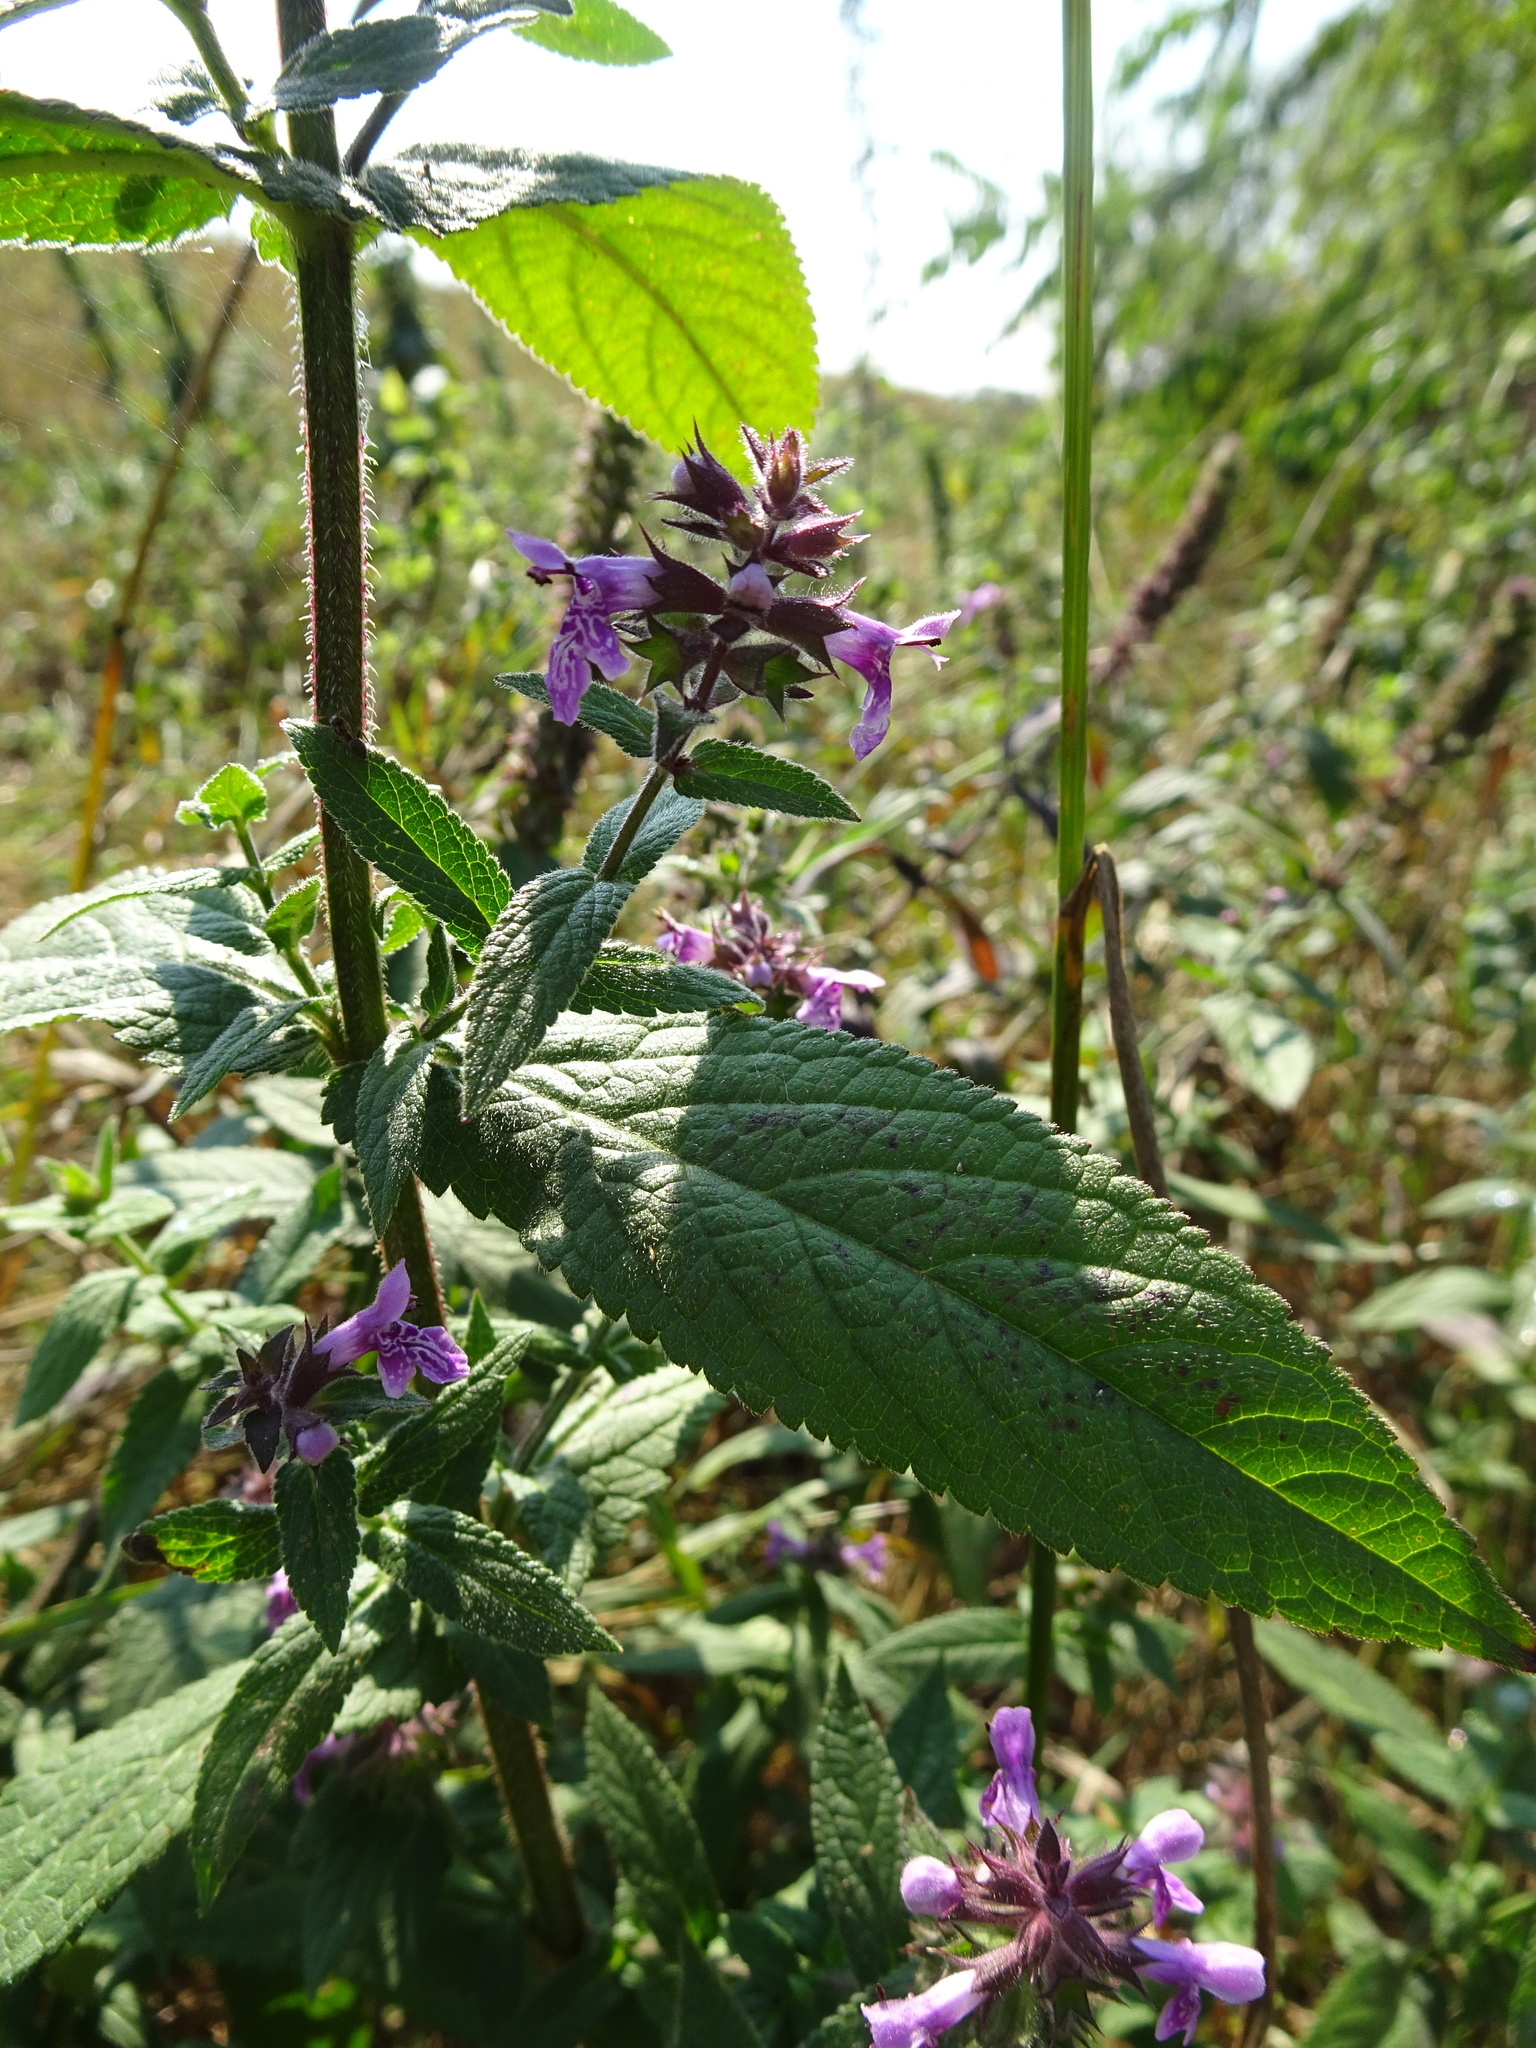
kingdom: Plantae
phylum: Tracheophyta
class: Magnoliopsida
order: Lamiales
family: Lamiaceae
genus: Stachys
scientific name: Stachys palustris
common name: Marsh woundwort
